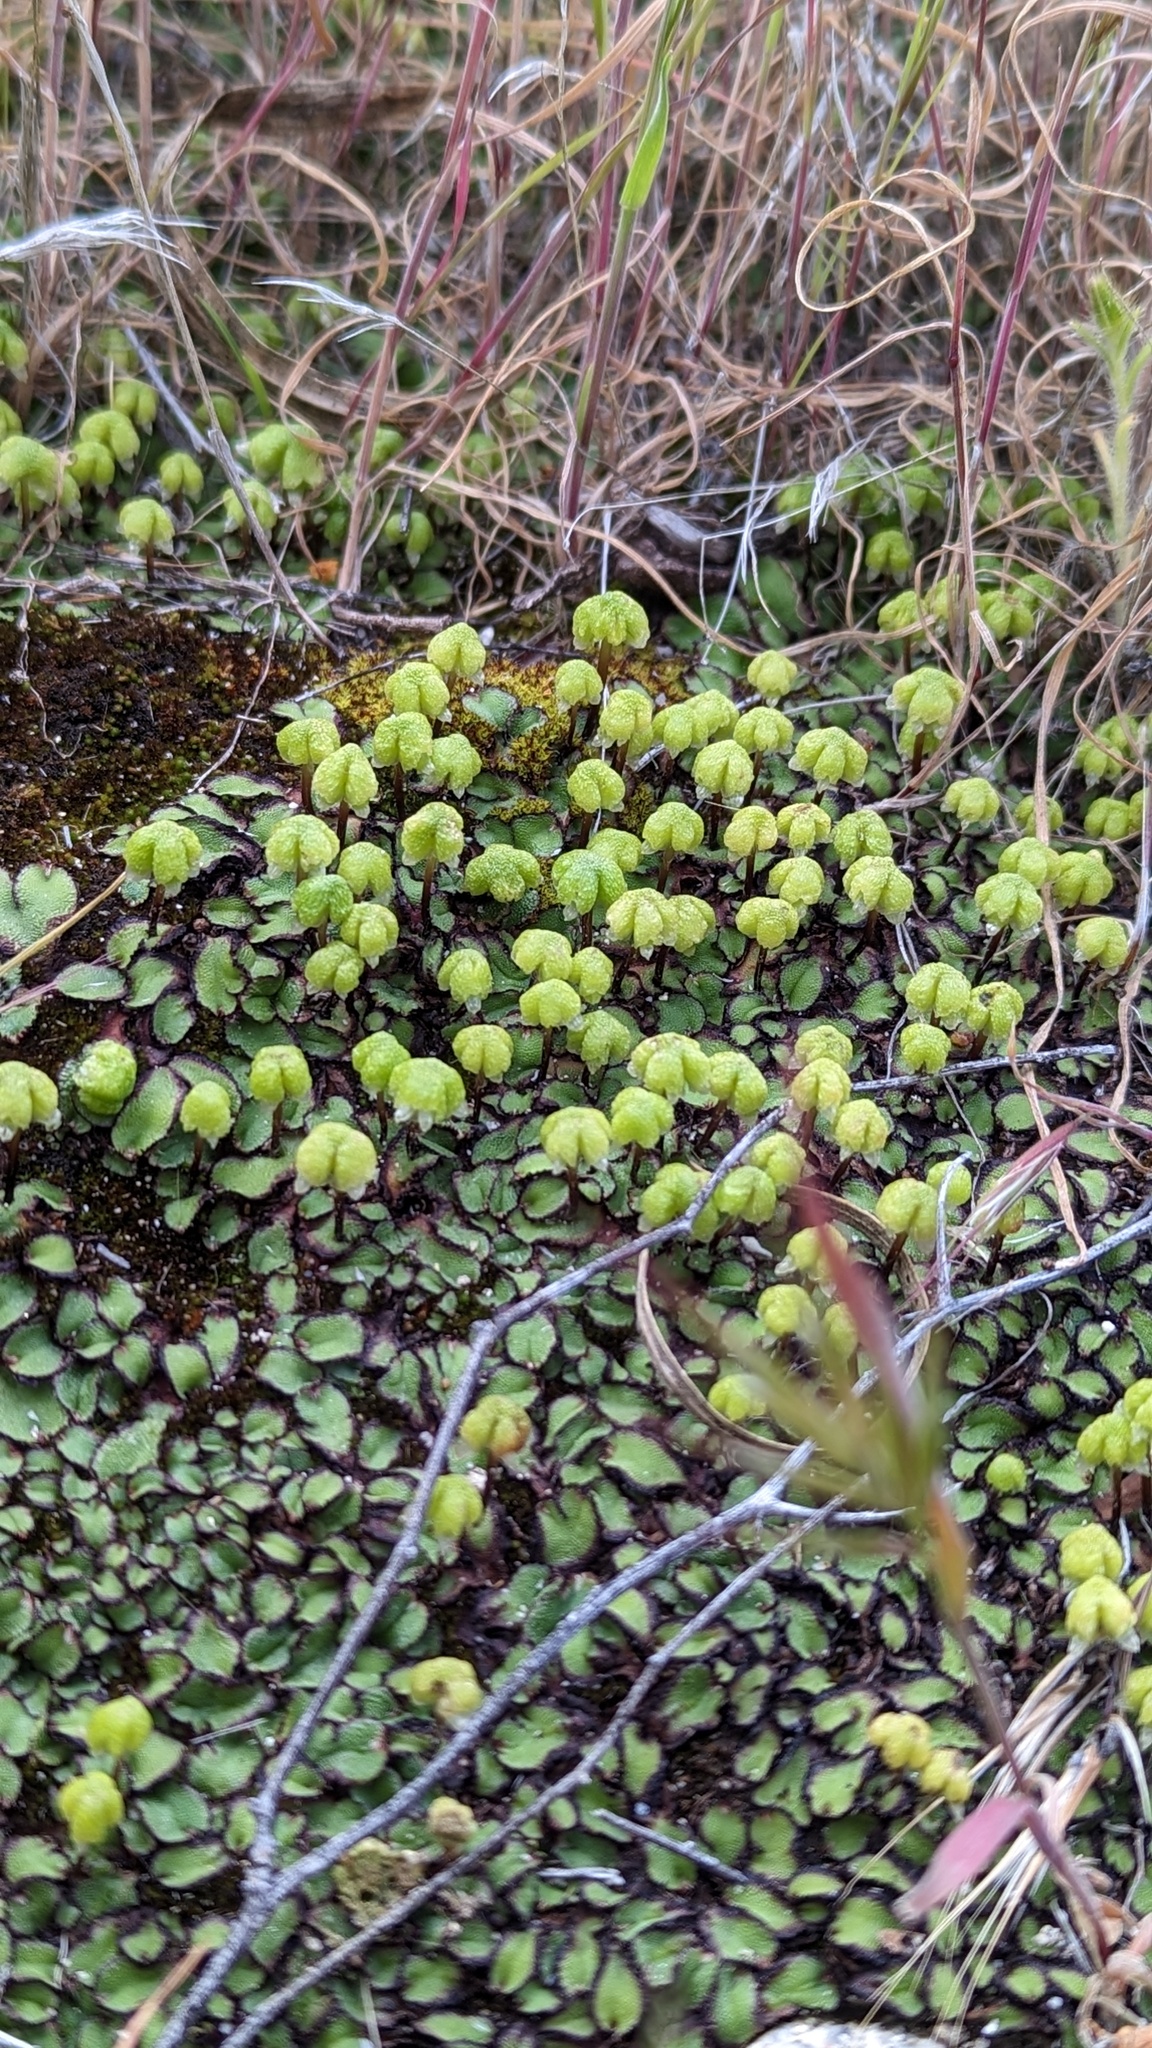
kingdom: Plantae
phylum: Marchantiophyta
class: Marchantiopsida
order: Marchantiales
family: Aytoniaceae
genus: Asterella
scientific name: Asterella californica
